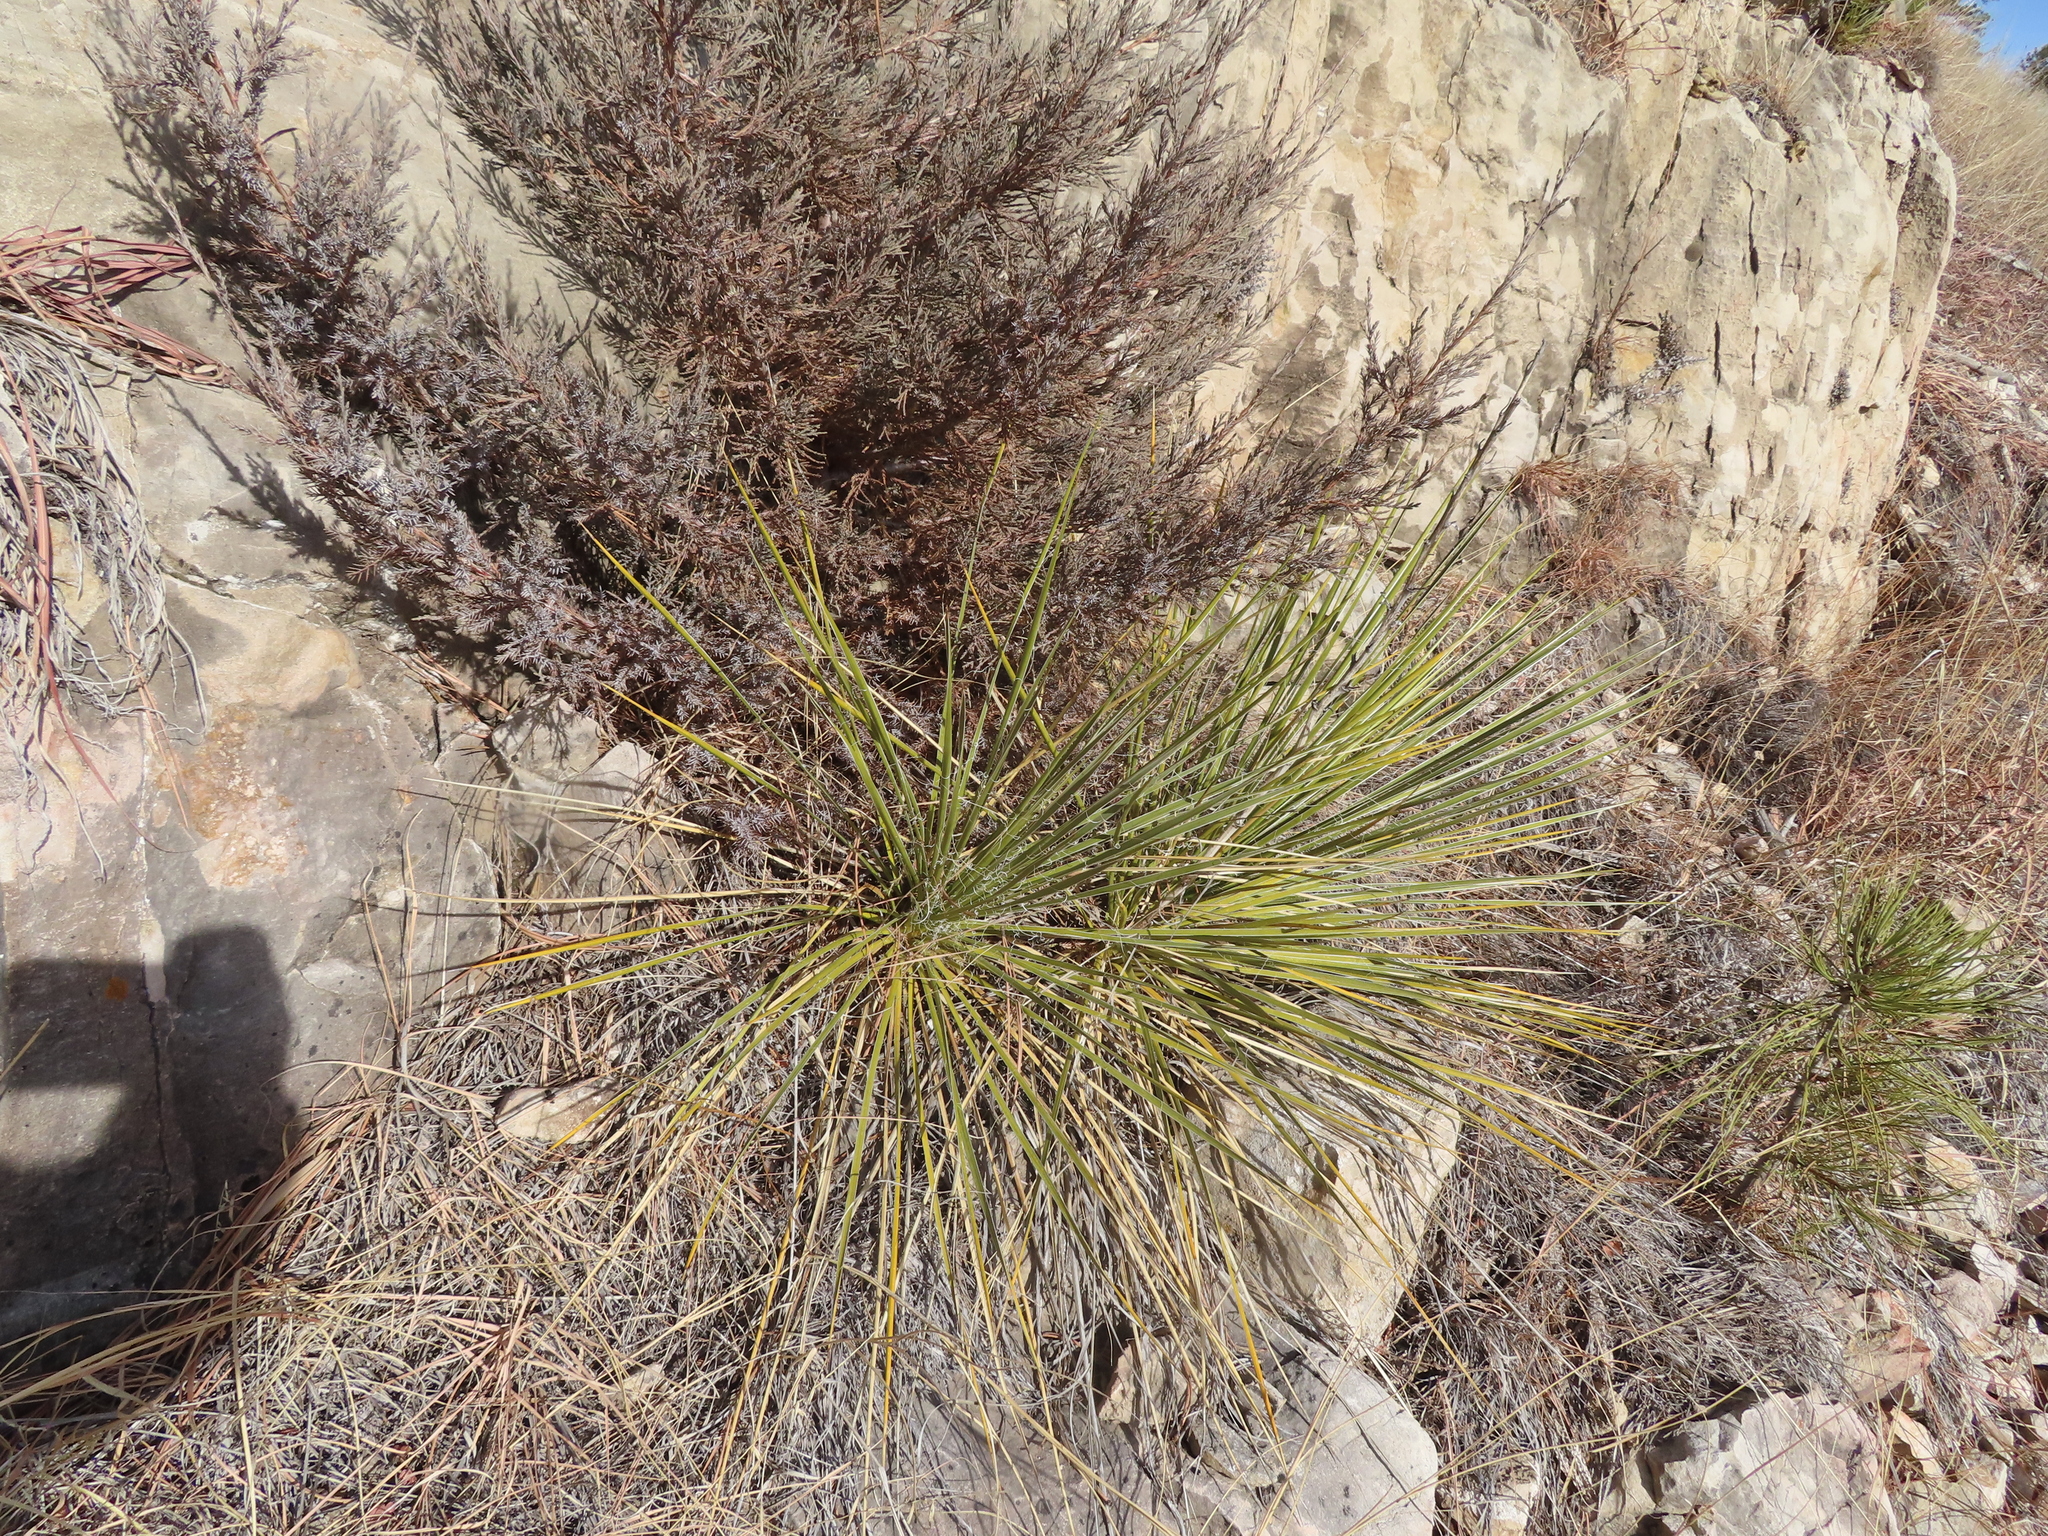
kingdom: Plantae
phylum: Tracheophyta
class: Liliopsida
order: Asparagales
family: Asparagaceae
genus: Yucca
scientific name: Yucca glauca
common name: Great plains yucca
